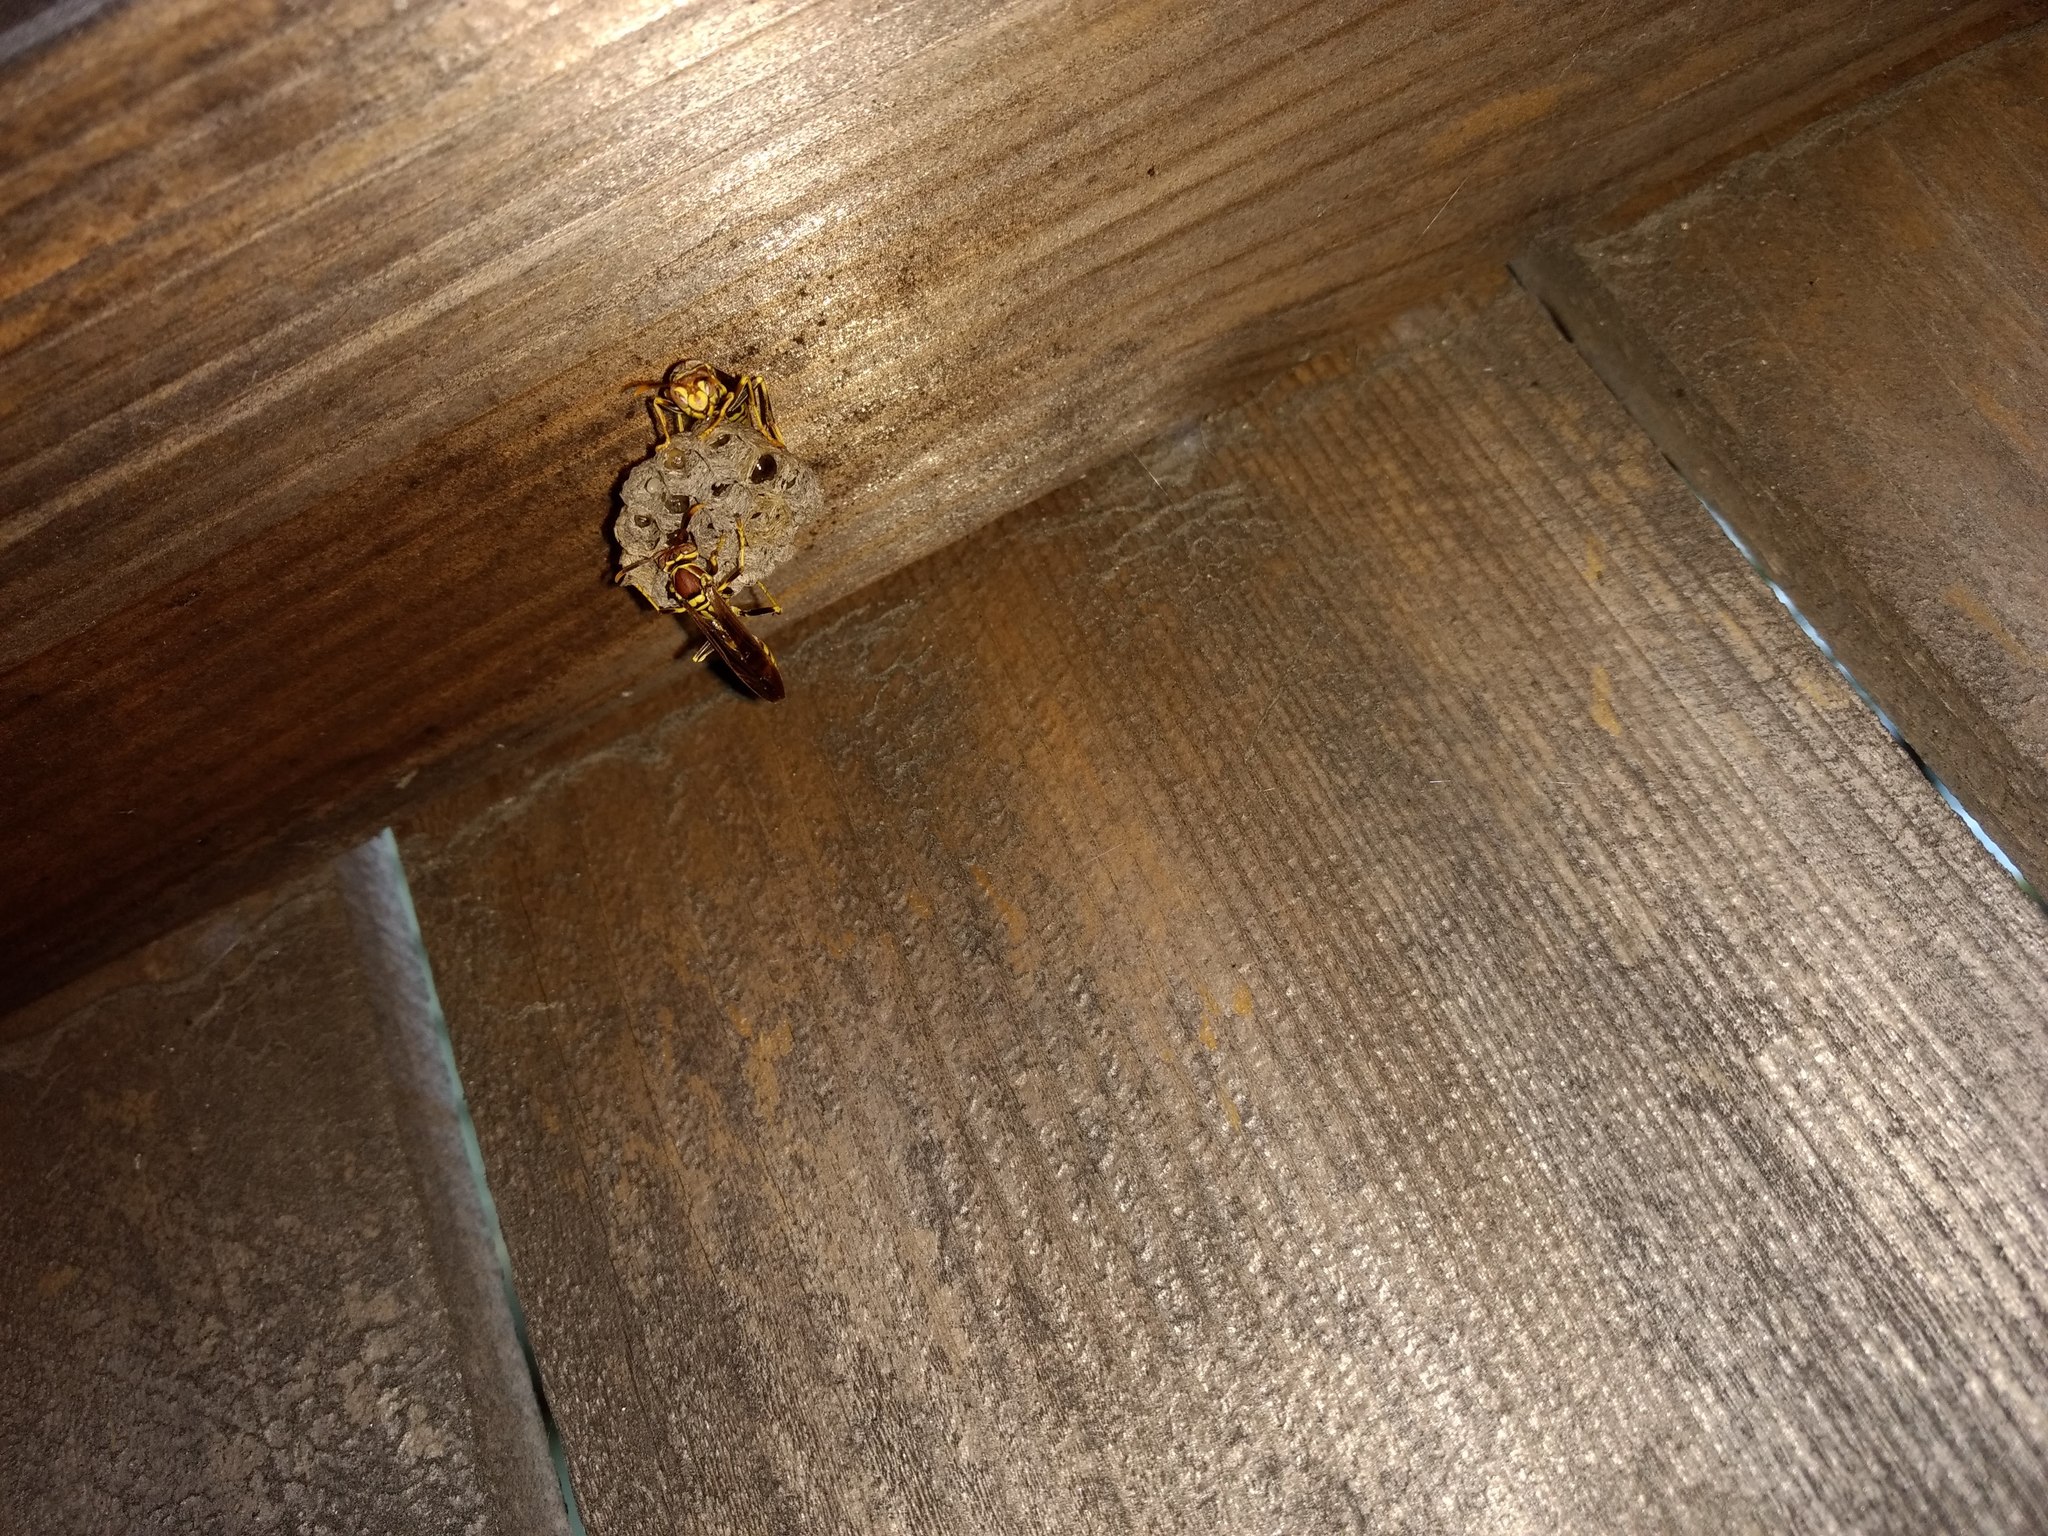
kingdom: Animalia
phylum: Arthropoda
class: Insecta
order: Hymenoptera
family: Eumenidae
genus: Polistes
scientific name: Polistes exclamans
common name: Paper wasp
